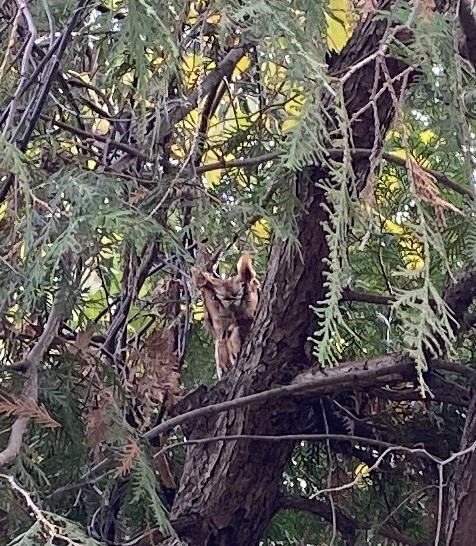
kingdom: Animalia
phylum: Chordata
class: Aves
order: Strigiformes
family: Strigidae
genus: Megascops
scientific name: Megascops asio
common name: Eastern screech-owl
